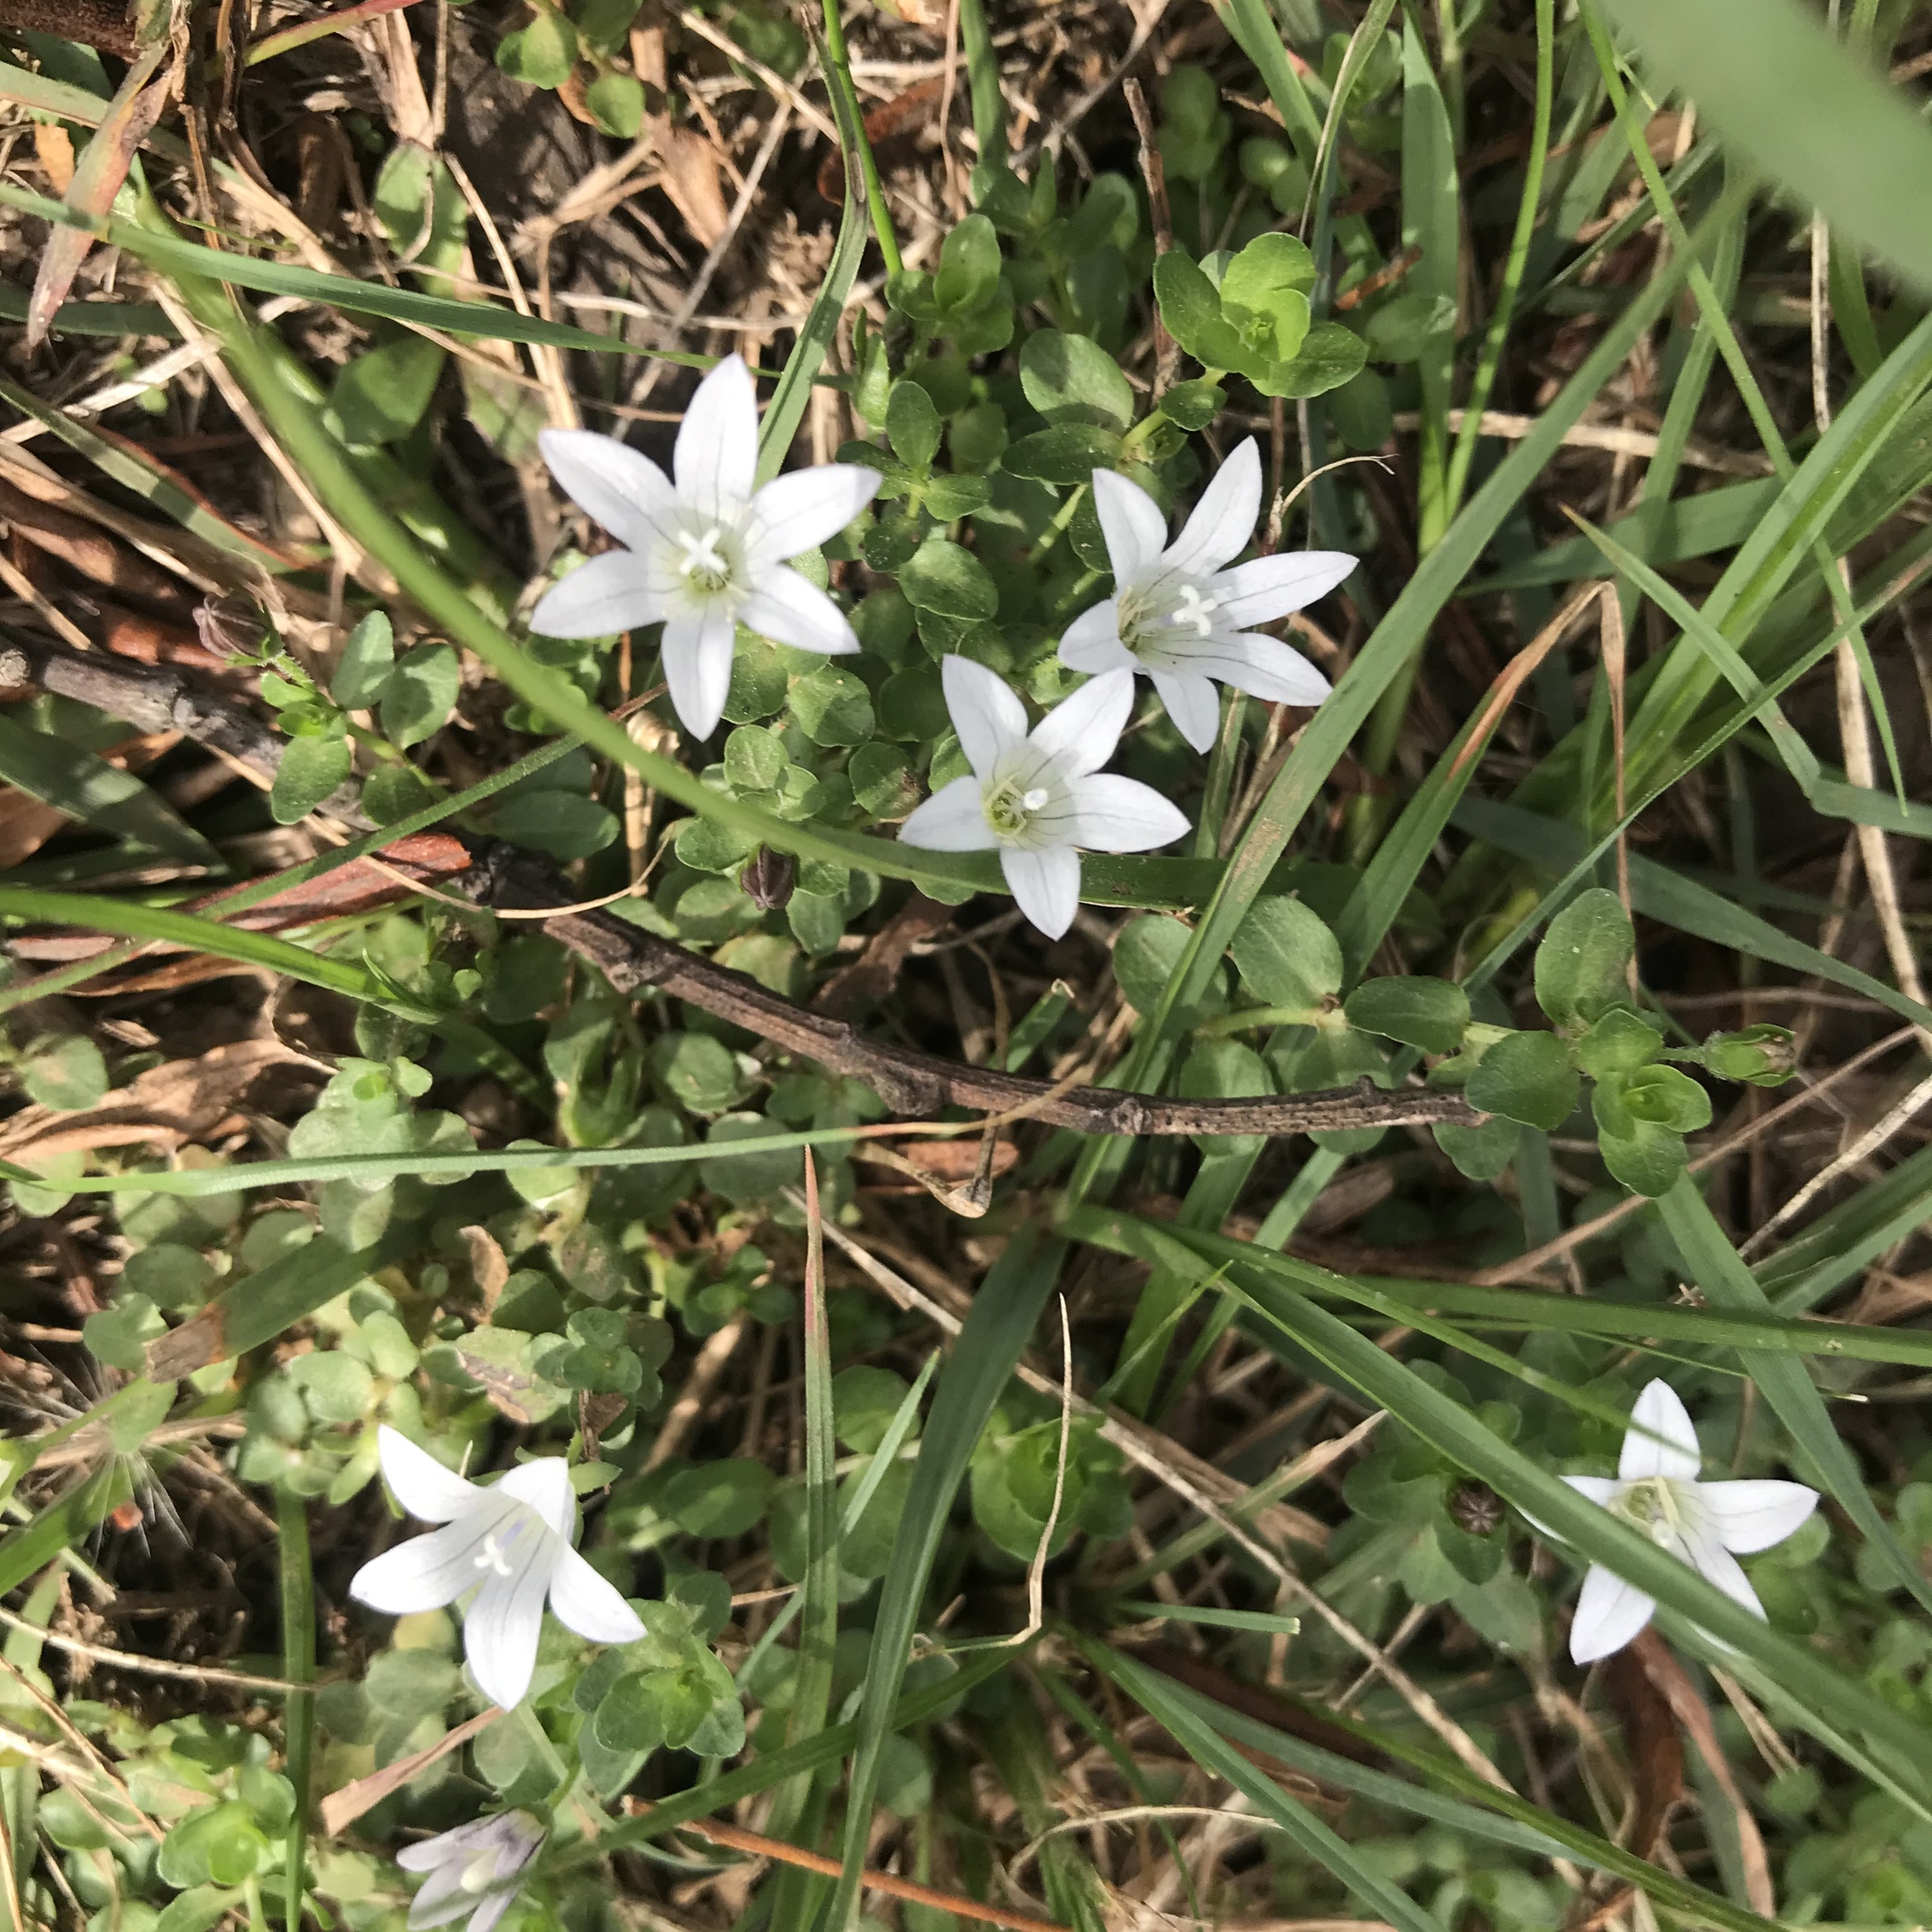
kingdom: Plantae
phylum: Tracheophyta
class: Magnoliopsida
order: Asterales
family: Campanulaceae
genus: Wahlenbergia
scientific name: Wahlenbergia procumbens
